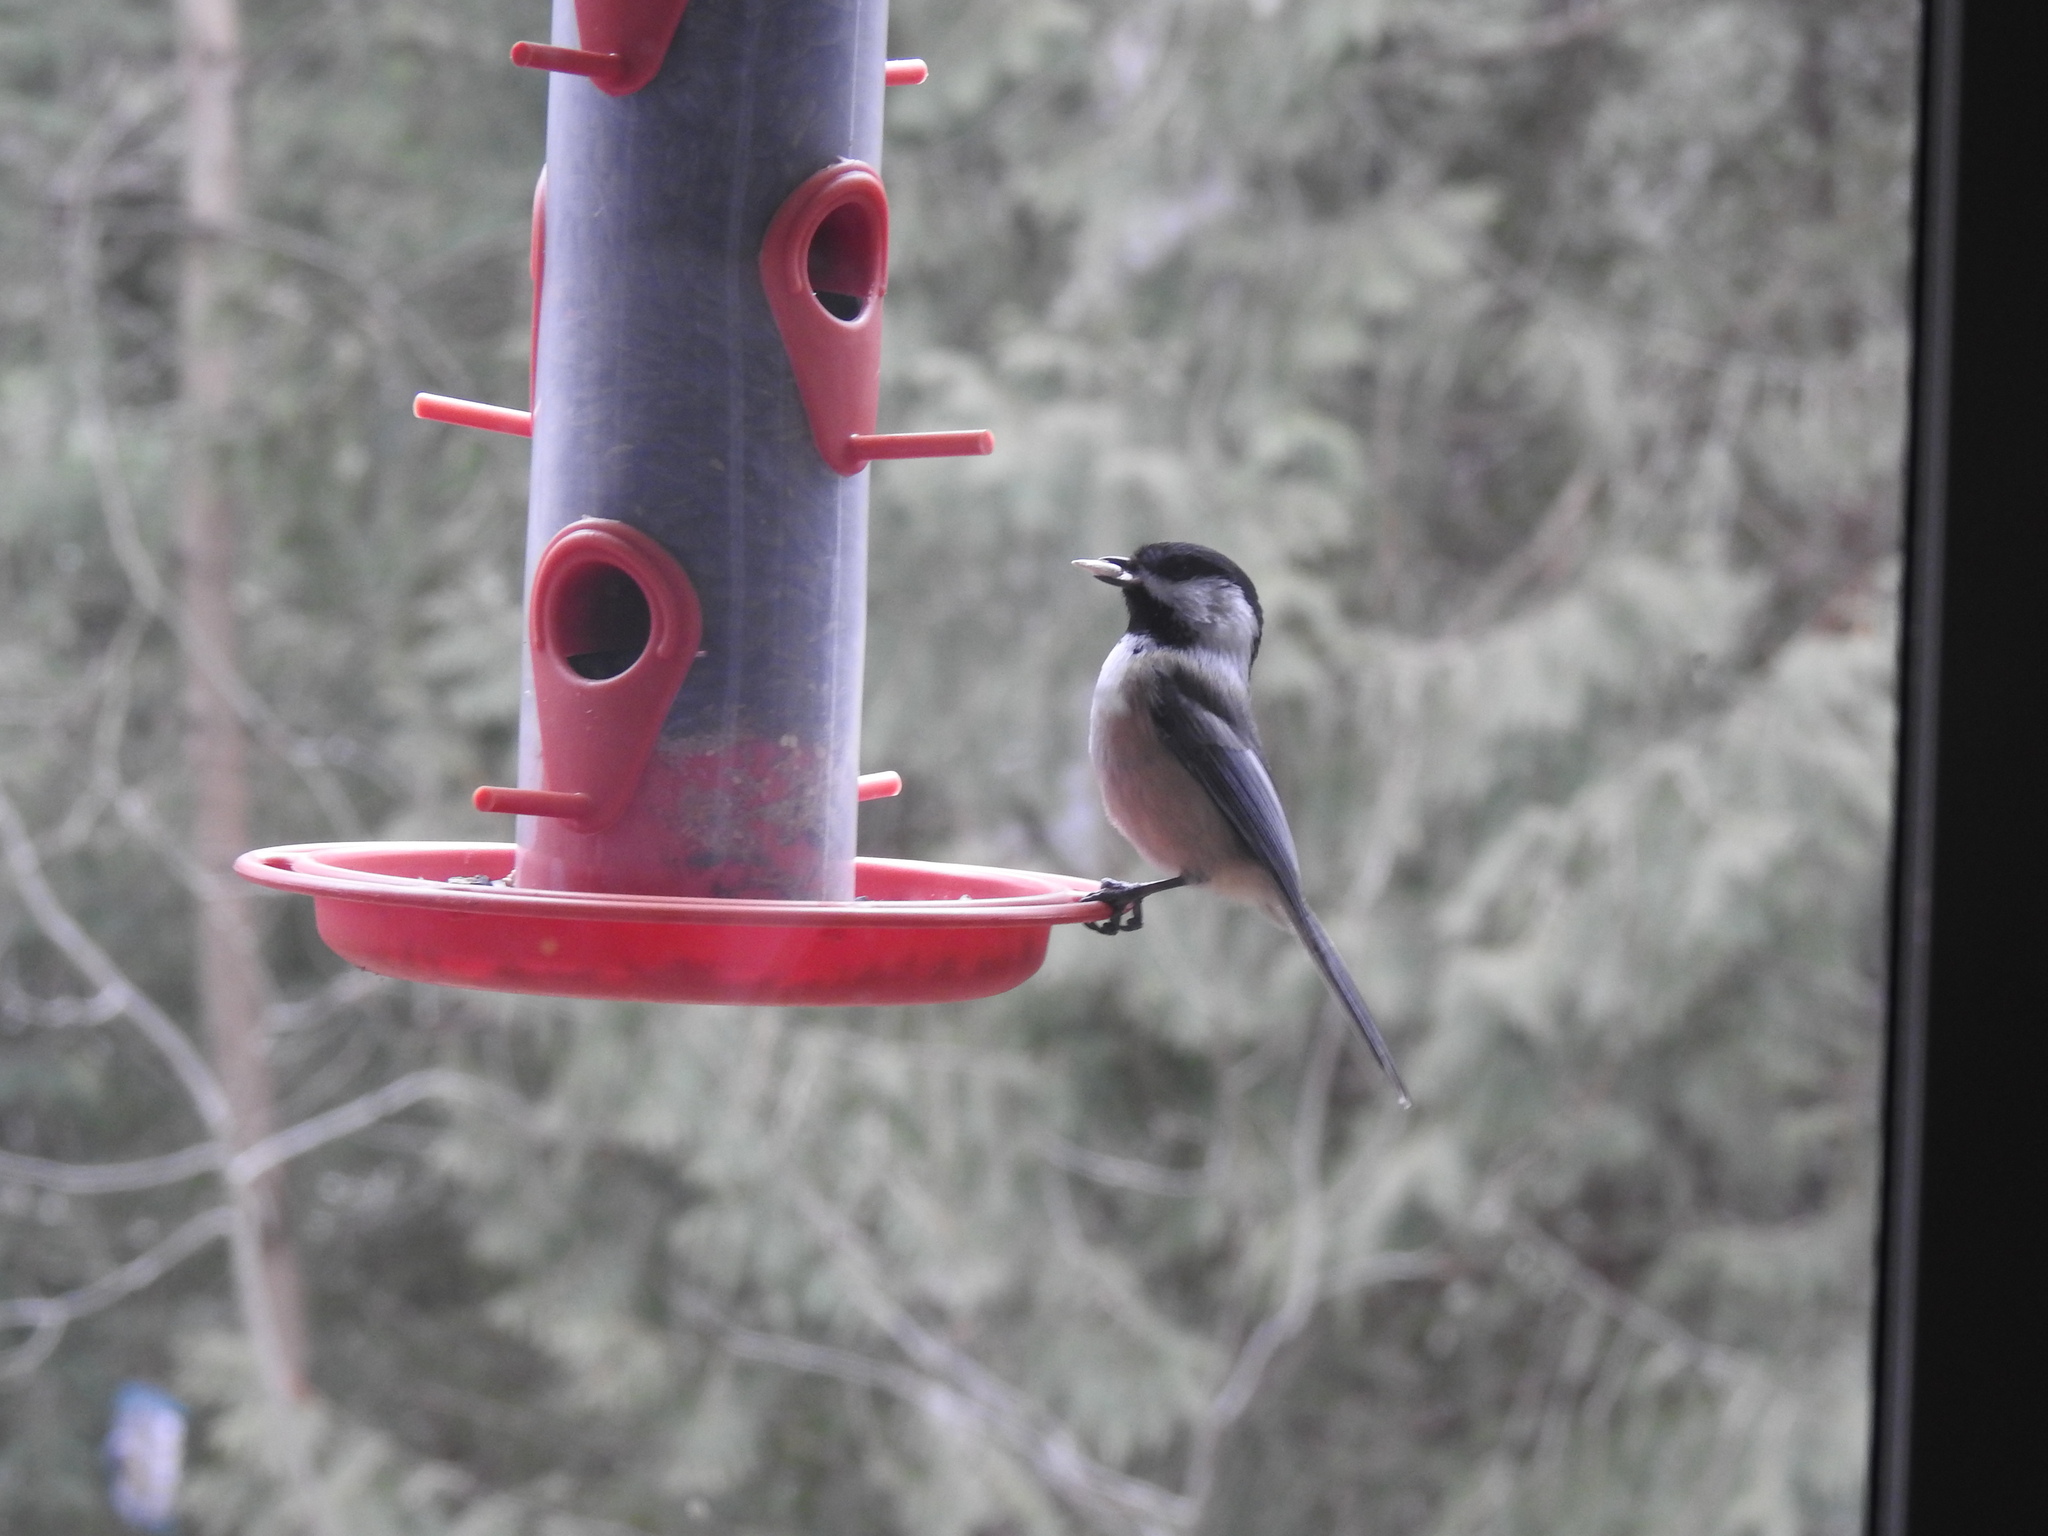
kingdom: Animalia
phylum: Chordata
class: Aves
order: Passeriformes
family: Paridae
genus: Poecile
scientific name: Poecile atricapillus
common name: Black-capped chickadee
